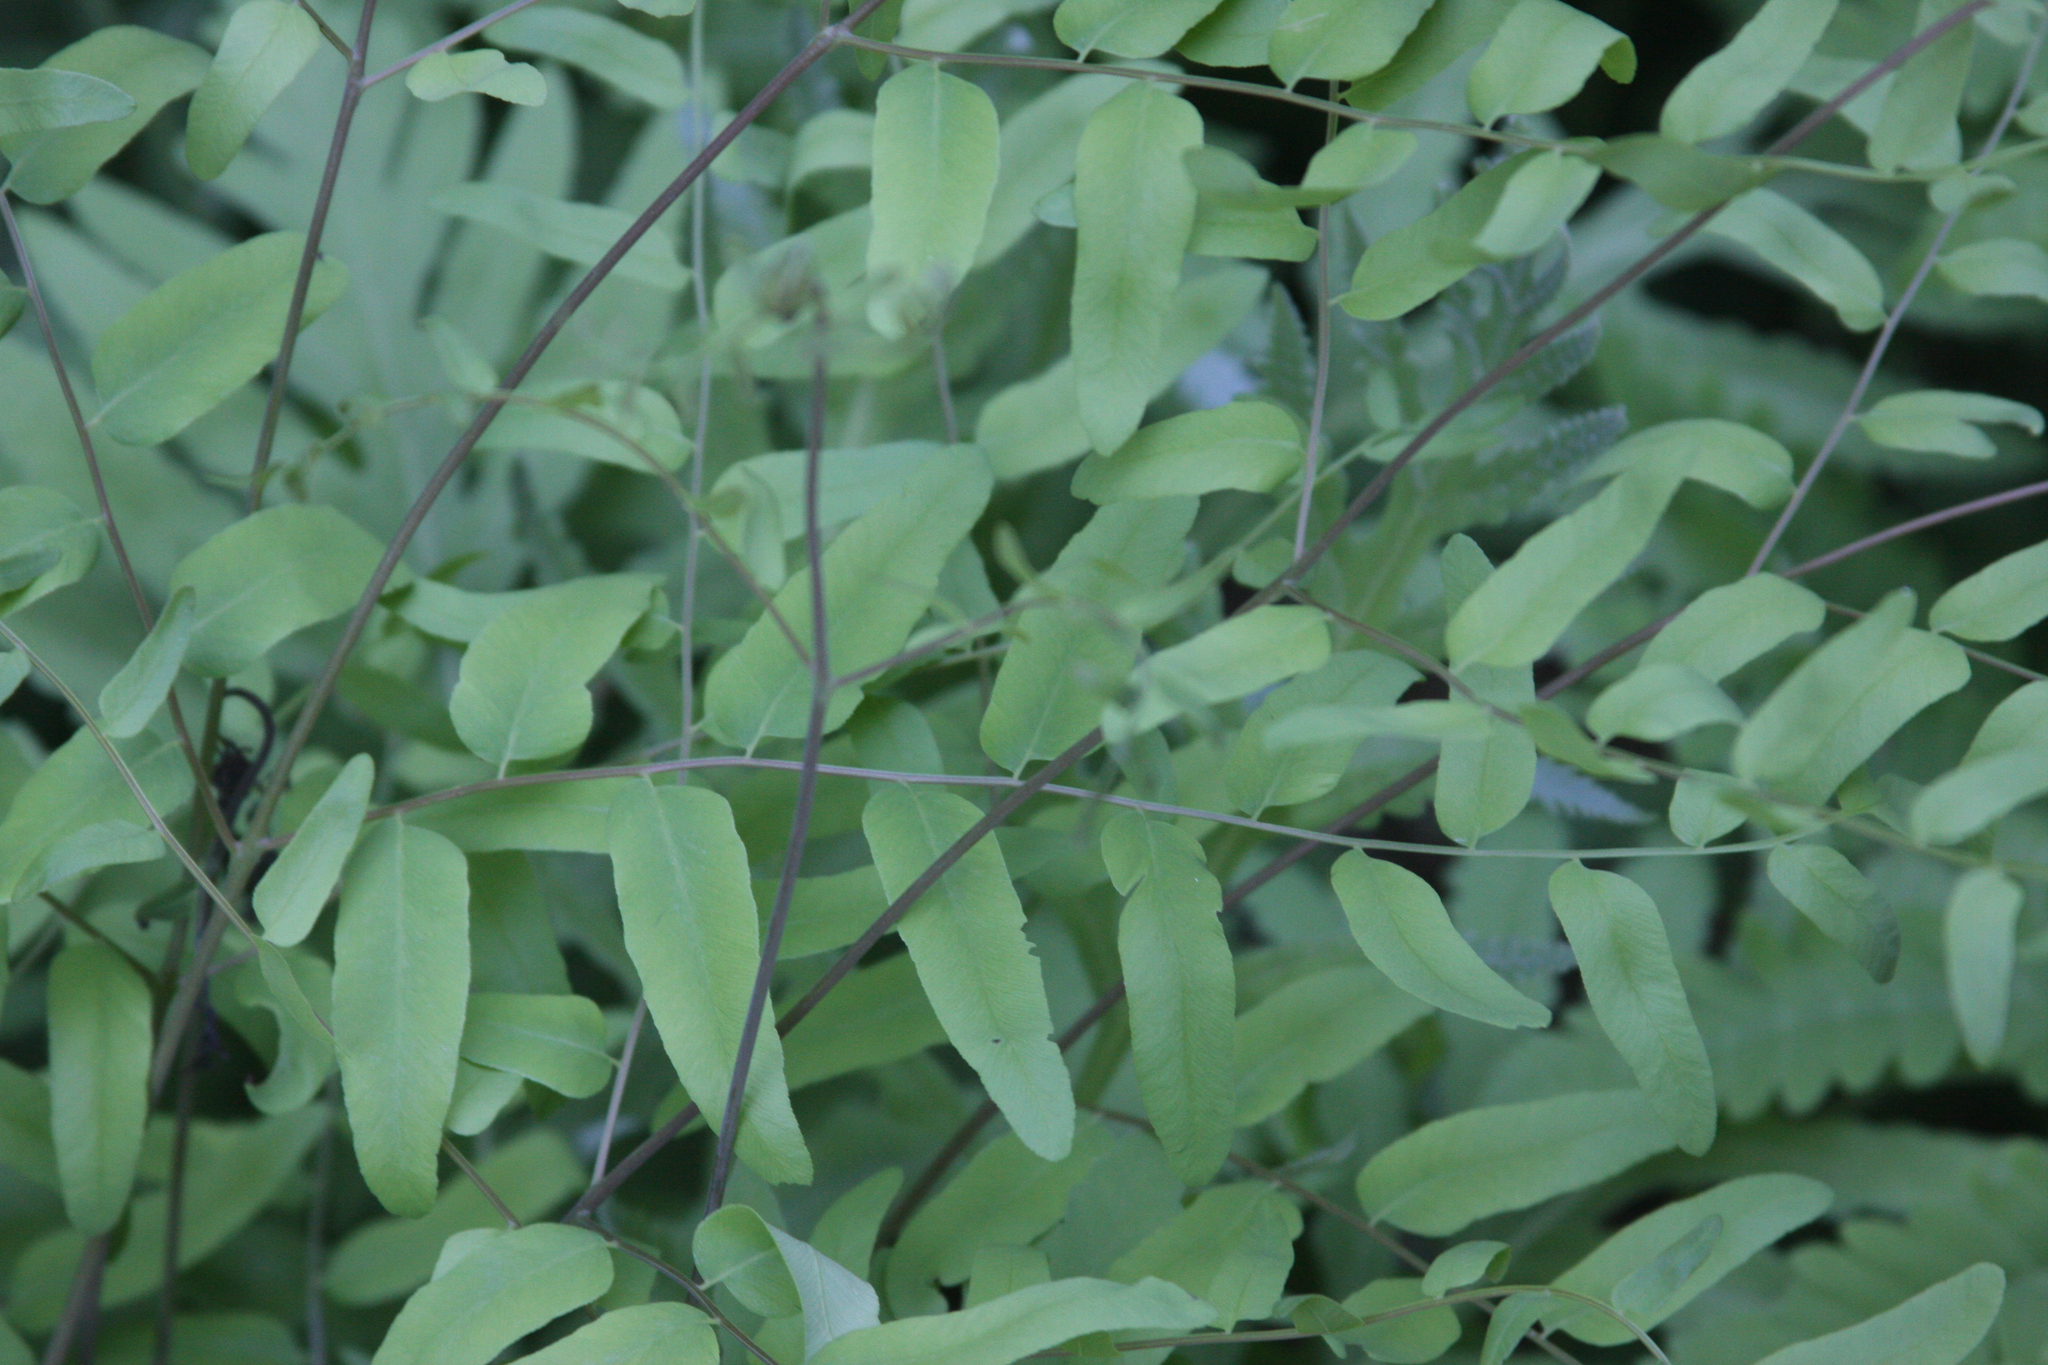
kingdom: Plantae
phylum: Tracheophyta
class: Polypodiopsida
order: Osmundales
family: Osmundaceae
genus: Osmunda
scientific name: Osmunda spectabilis
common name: American royal fern
